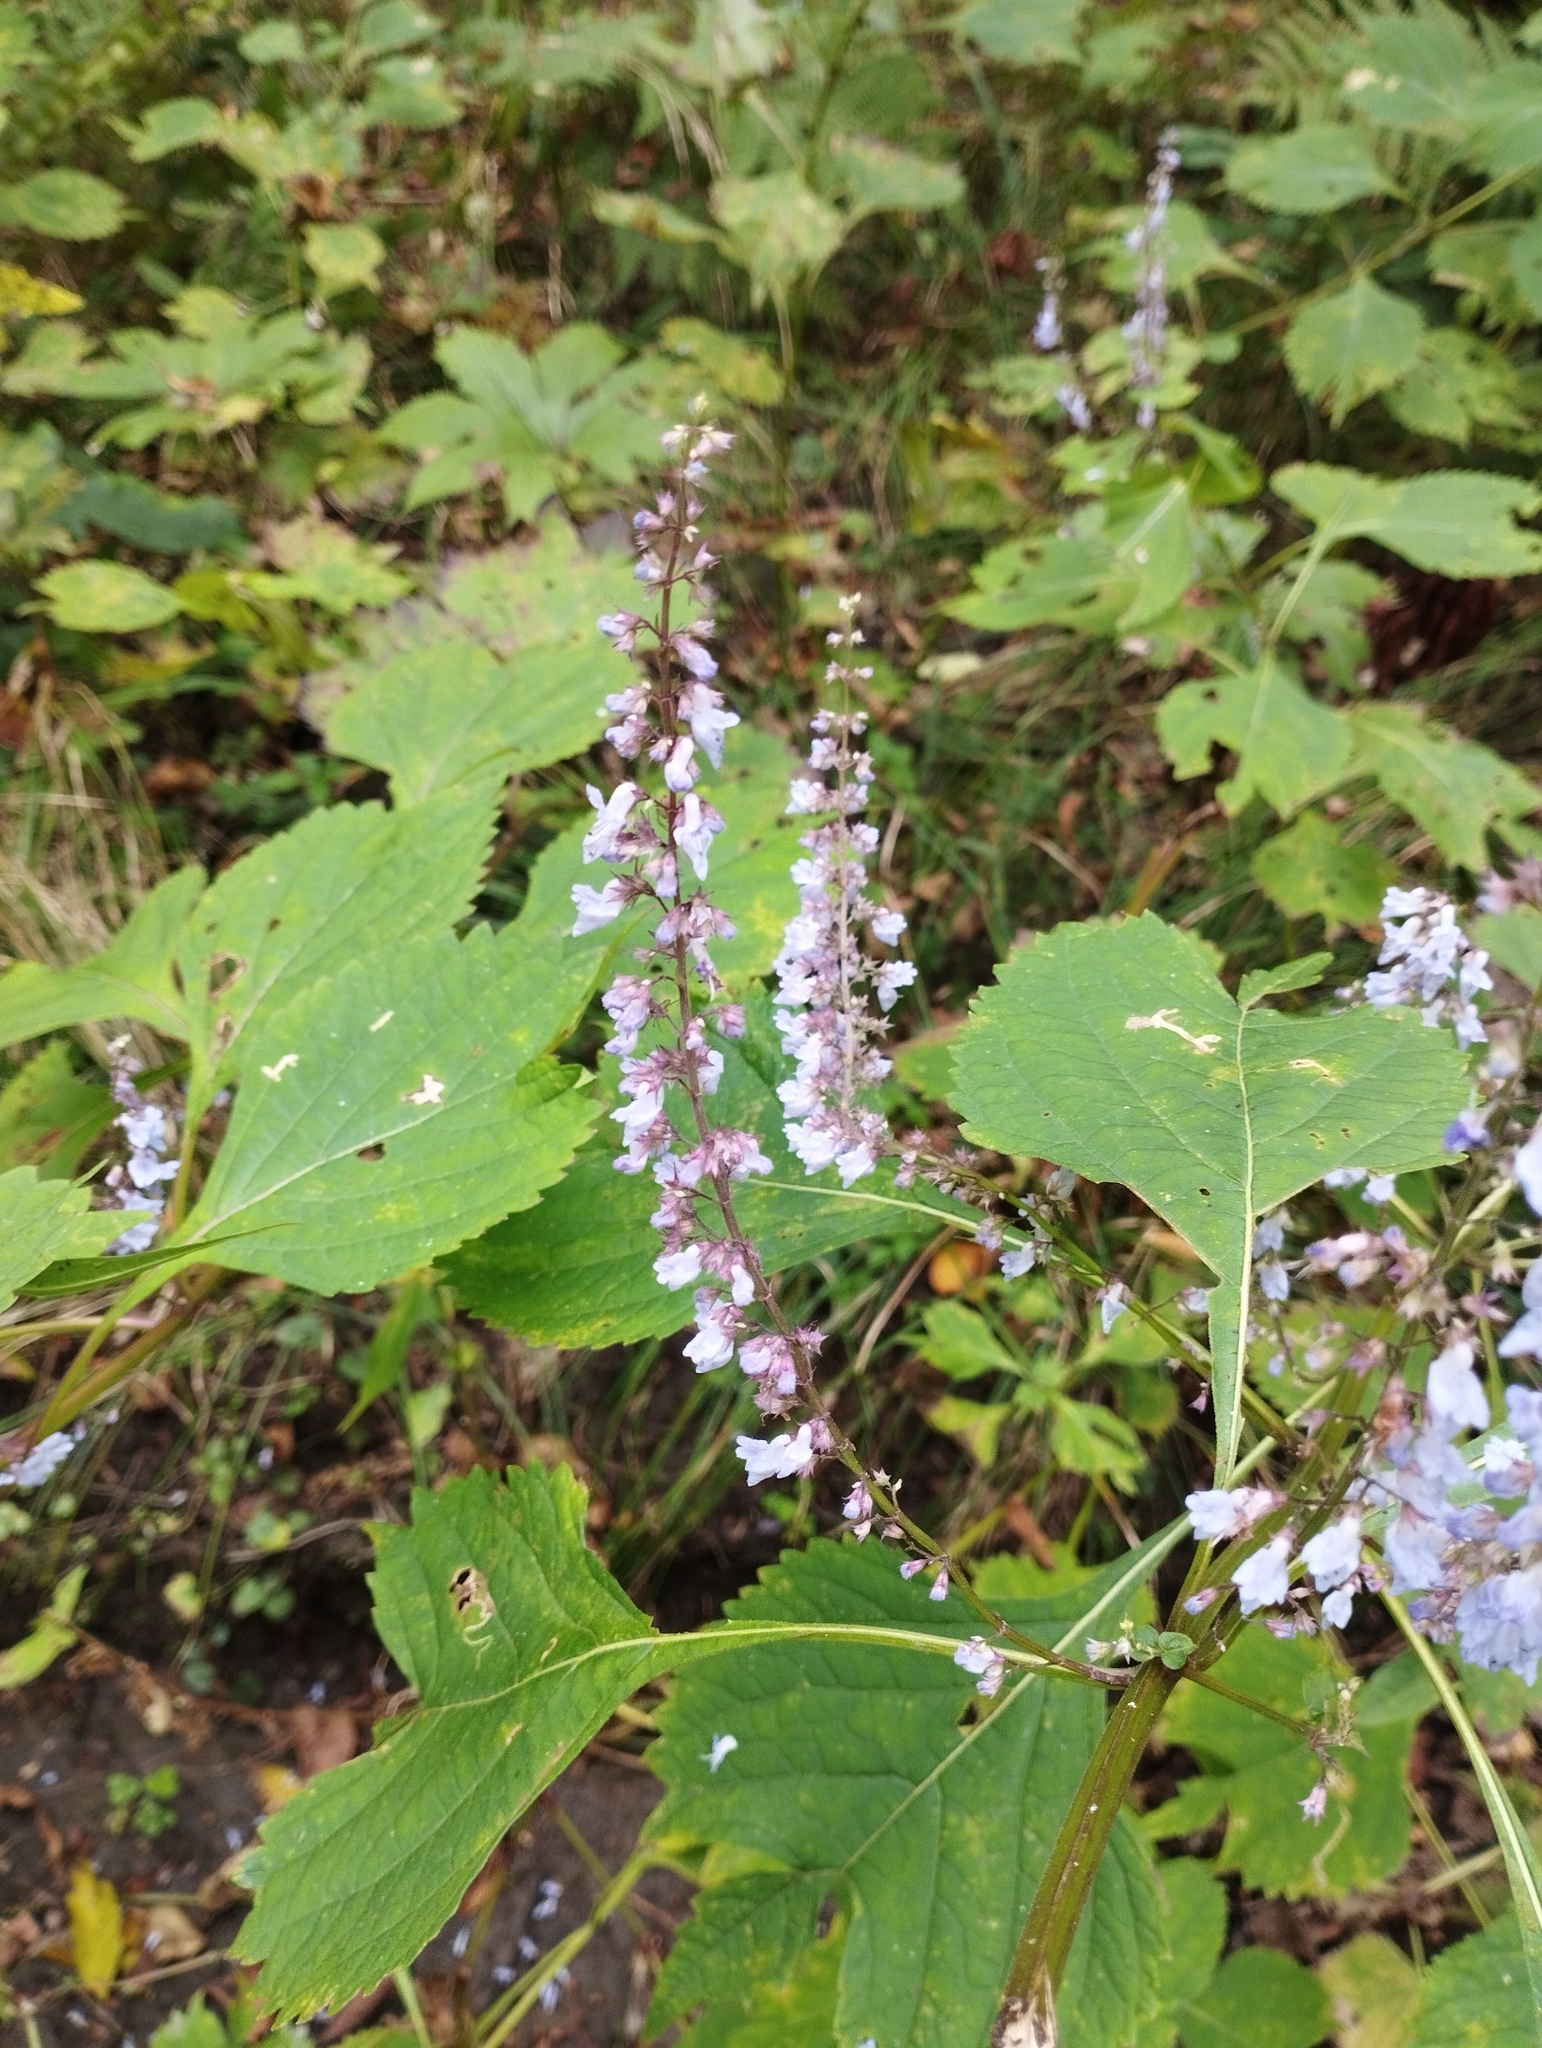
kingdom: Plantae
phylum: Tracheophyta
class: Magnoliopsida
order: Lamiales
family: Lamiaceae
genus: Isodon
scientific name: Isodon excisus
